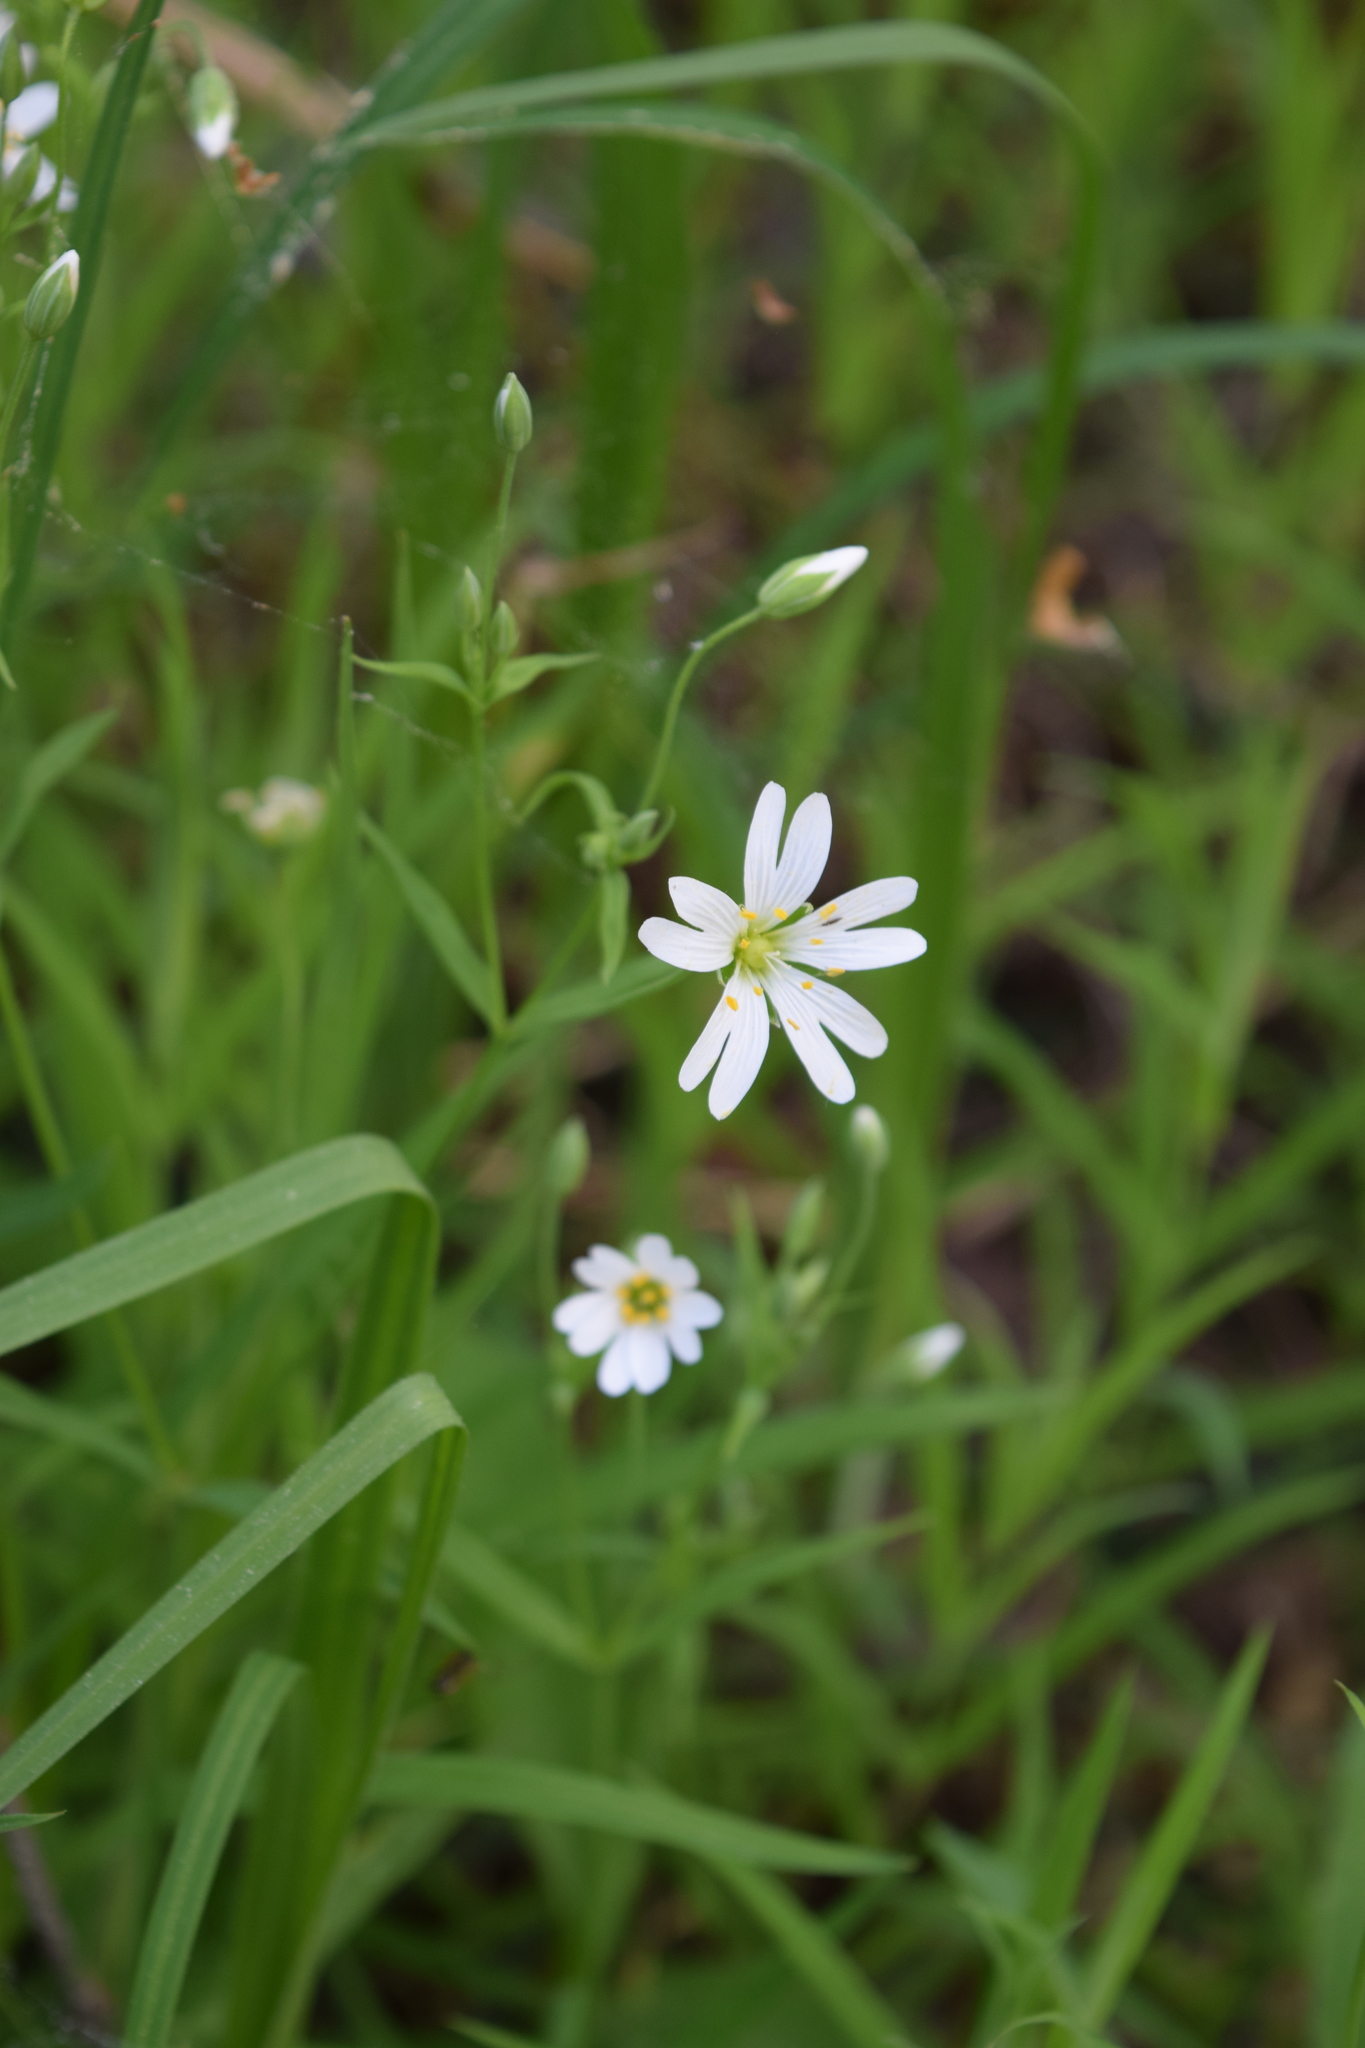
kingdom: Plantae
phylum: Tracheophyta
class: Magnoliopsida
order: Caryophyllales
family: Caryophyllaceae
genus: Rabelera
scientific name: Rabelera holostea
